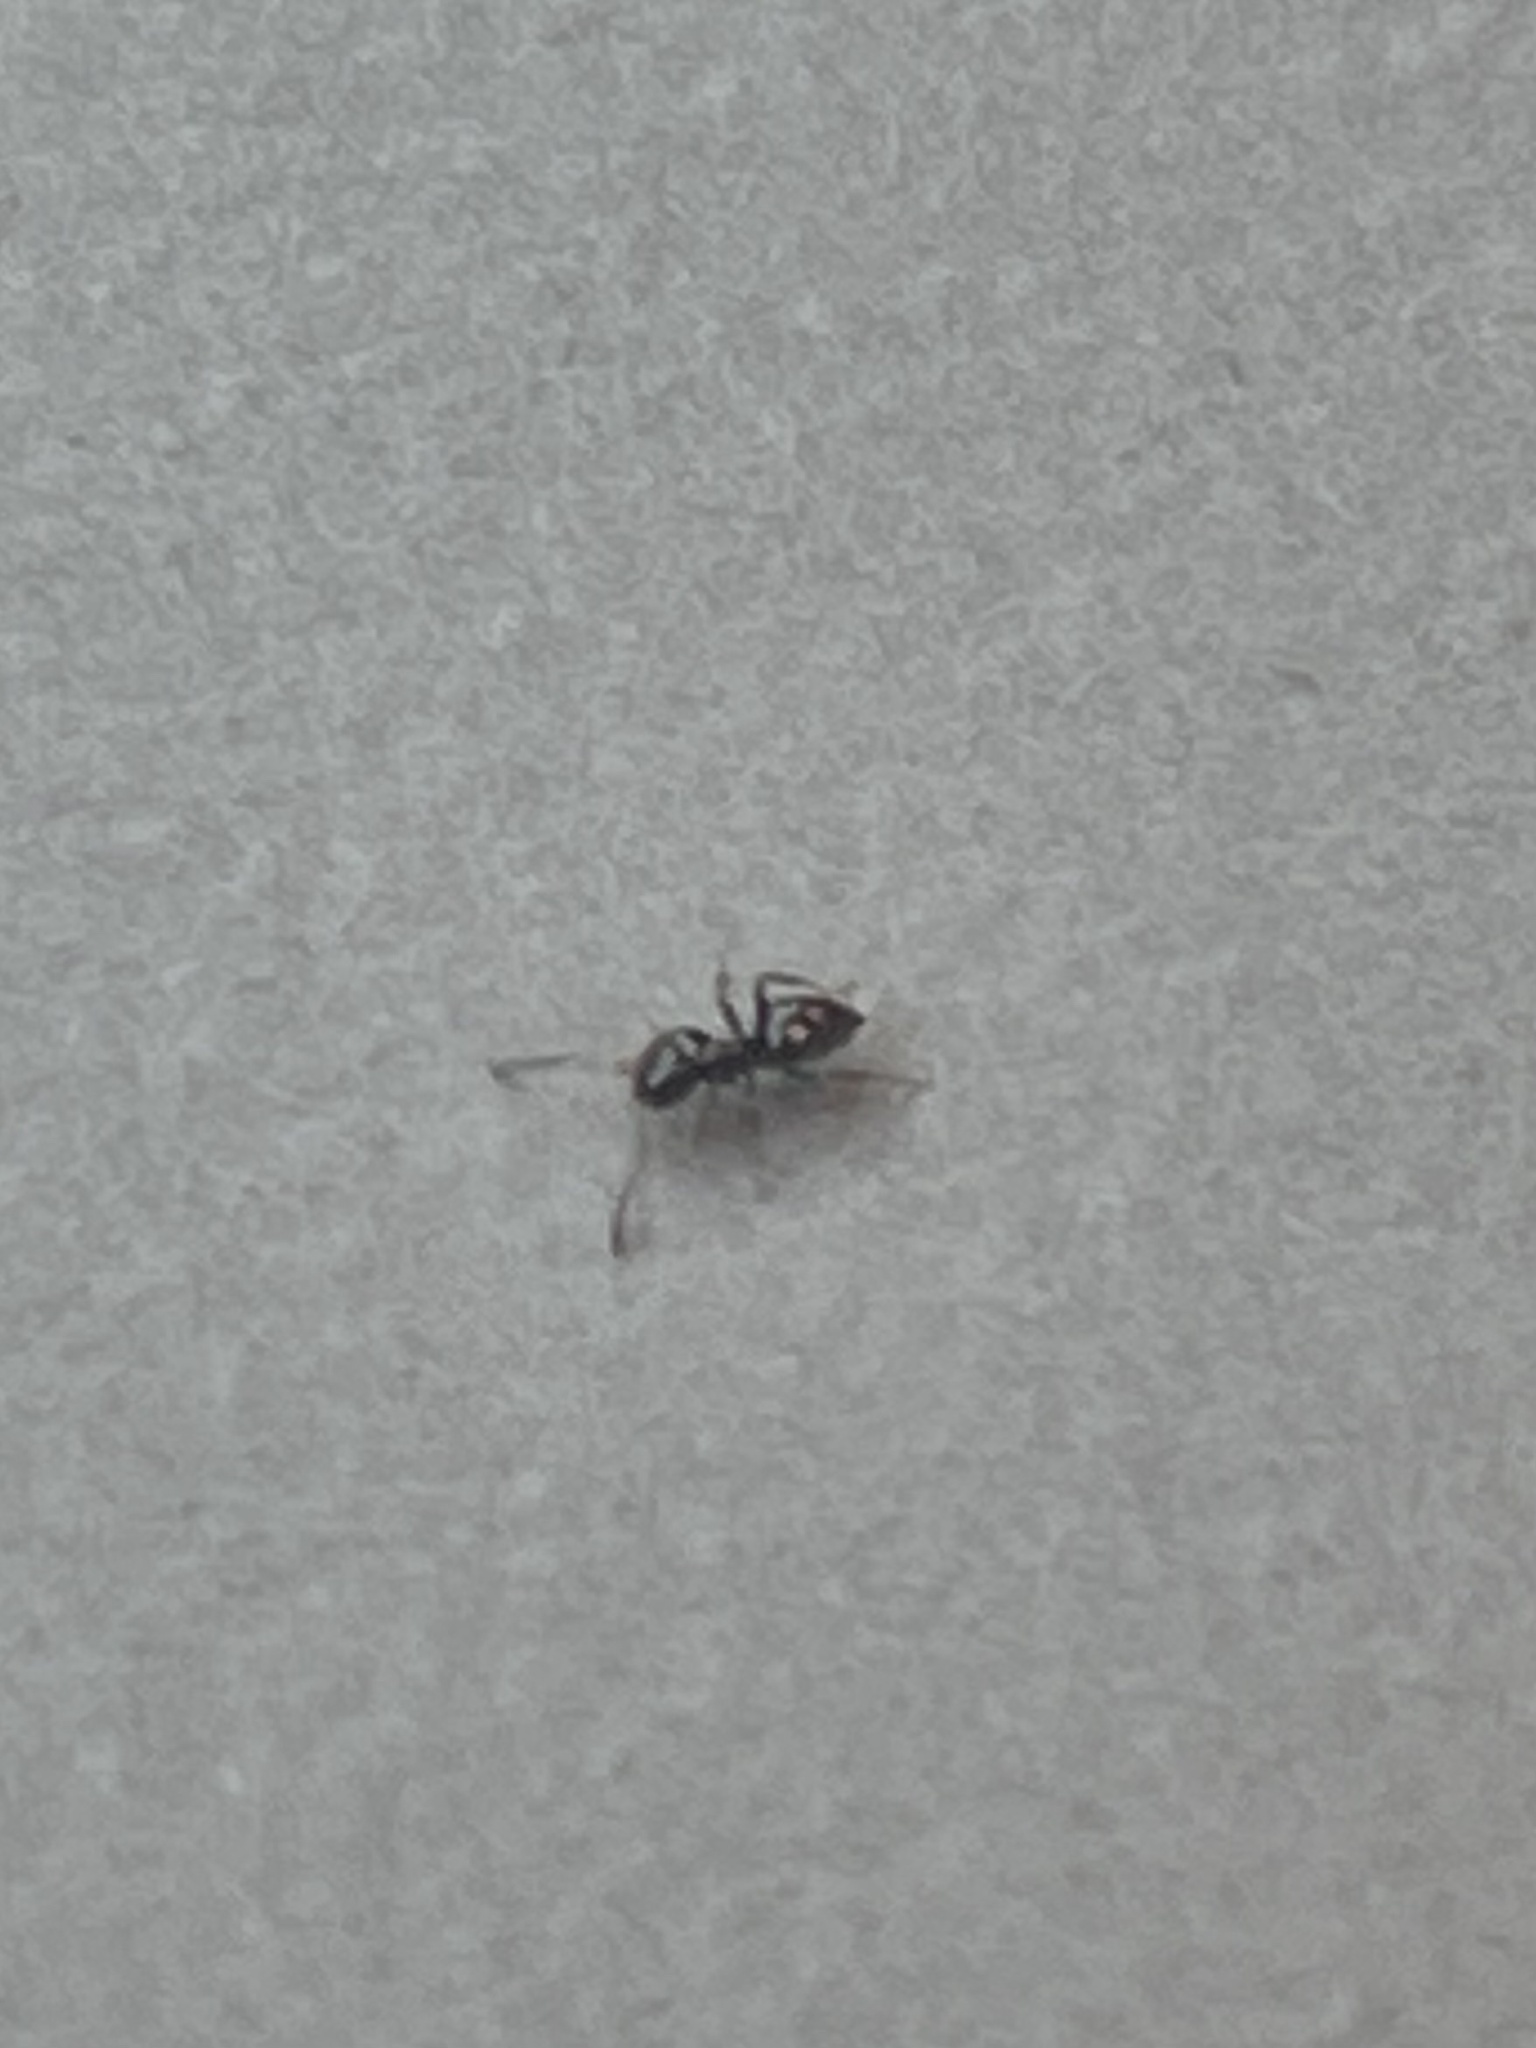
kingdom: Animalia
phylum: Arthropoda
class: Insecta
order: Hymenoptera
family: Formicidae
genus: Brachymyrmex
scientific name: Brachymyrmex patagonicus
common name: Dark rover ant
